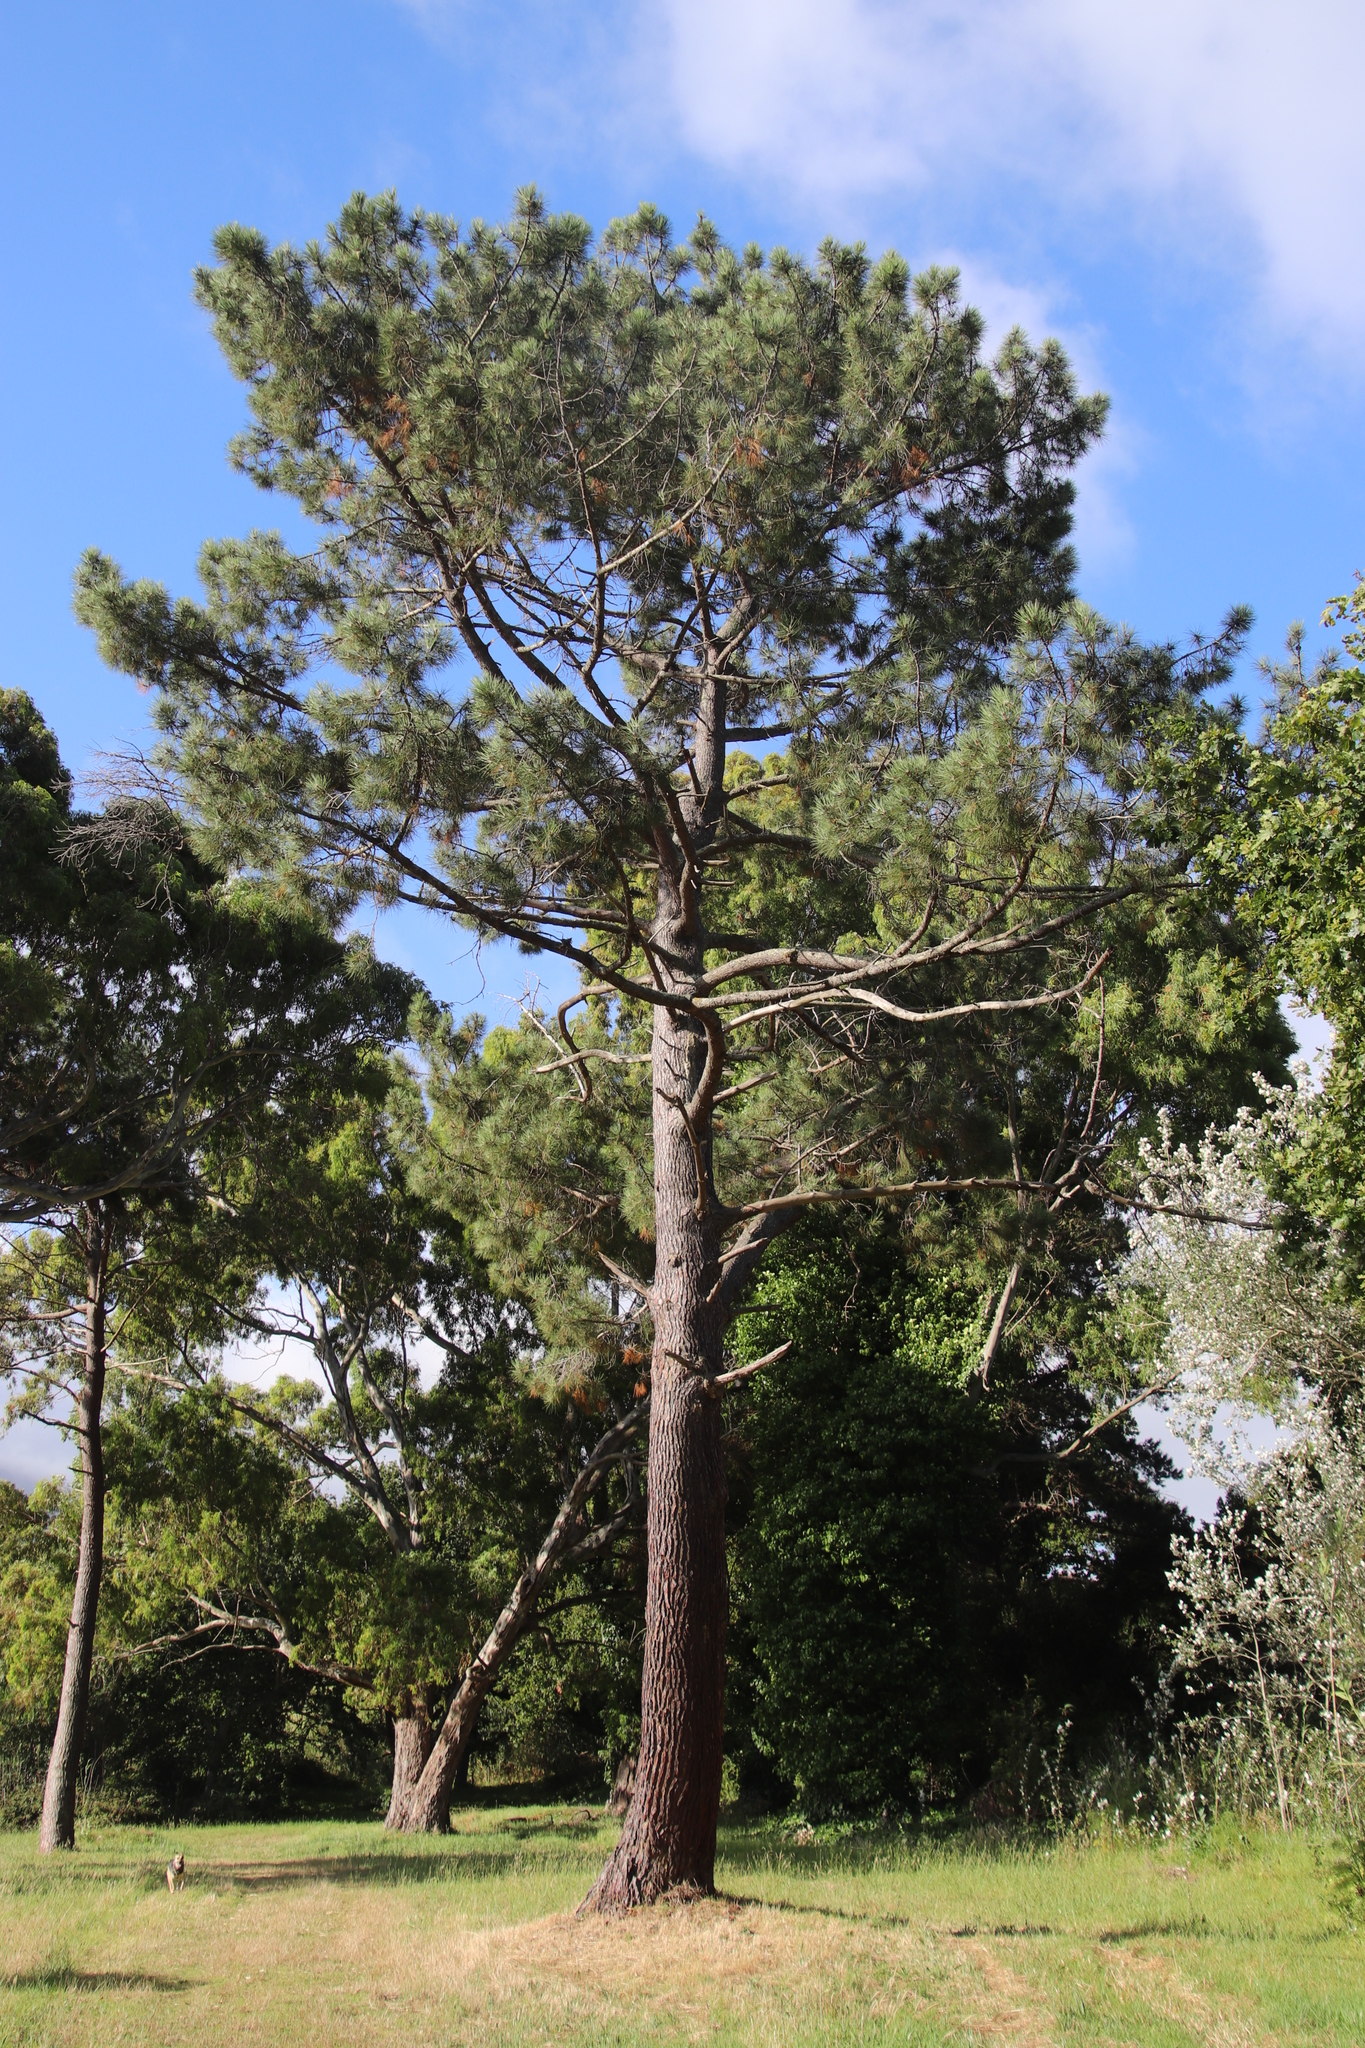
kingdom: Plantae
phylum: Tracheophyta
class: Pinopsida
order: Pinales
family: Pinaceae
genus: Pinus
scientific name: Pinus pinaster
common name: Maritime pine
